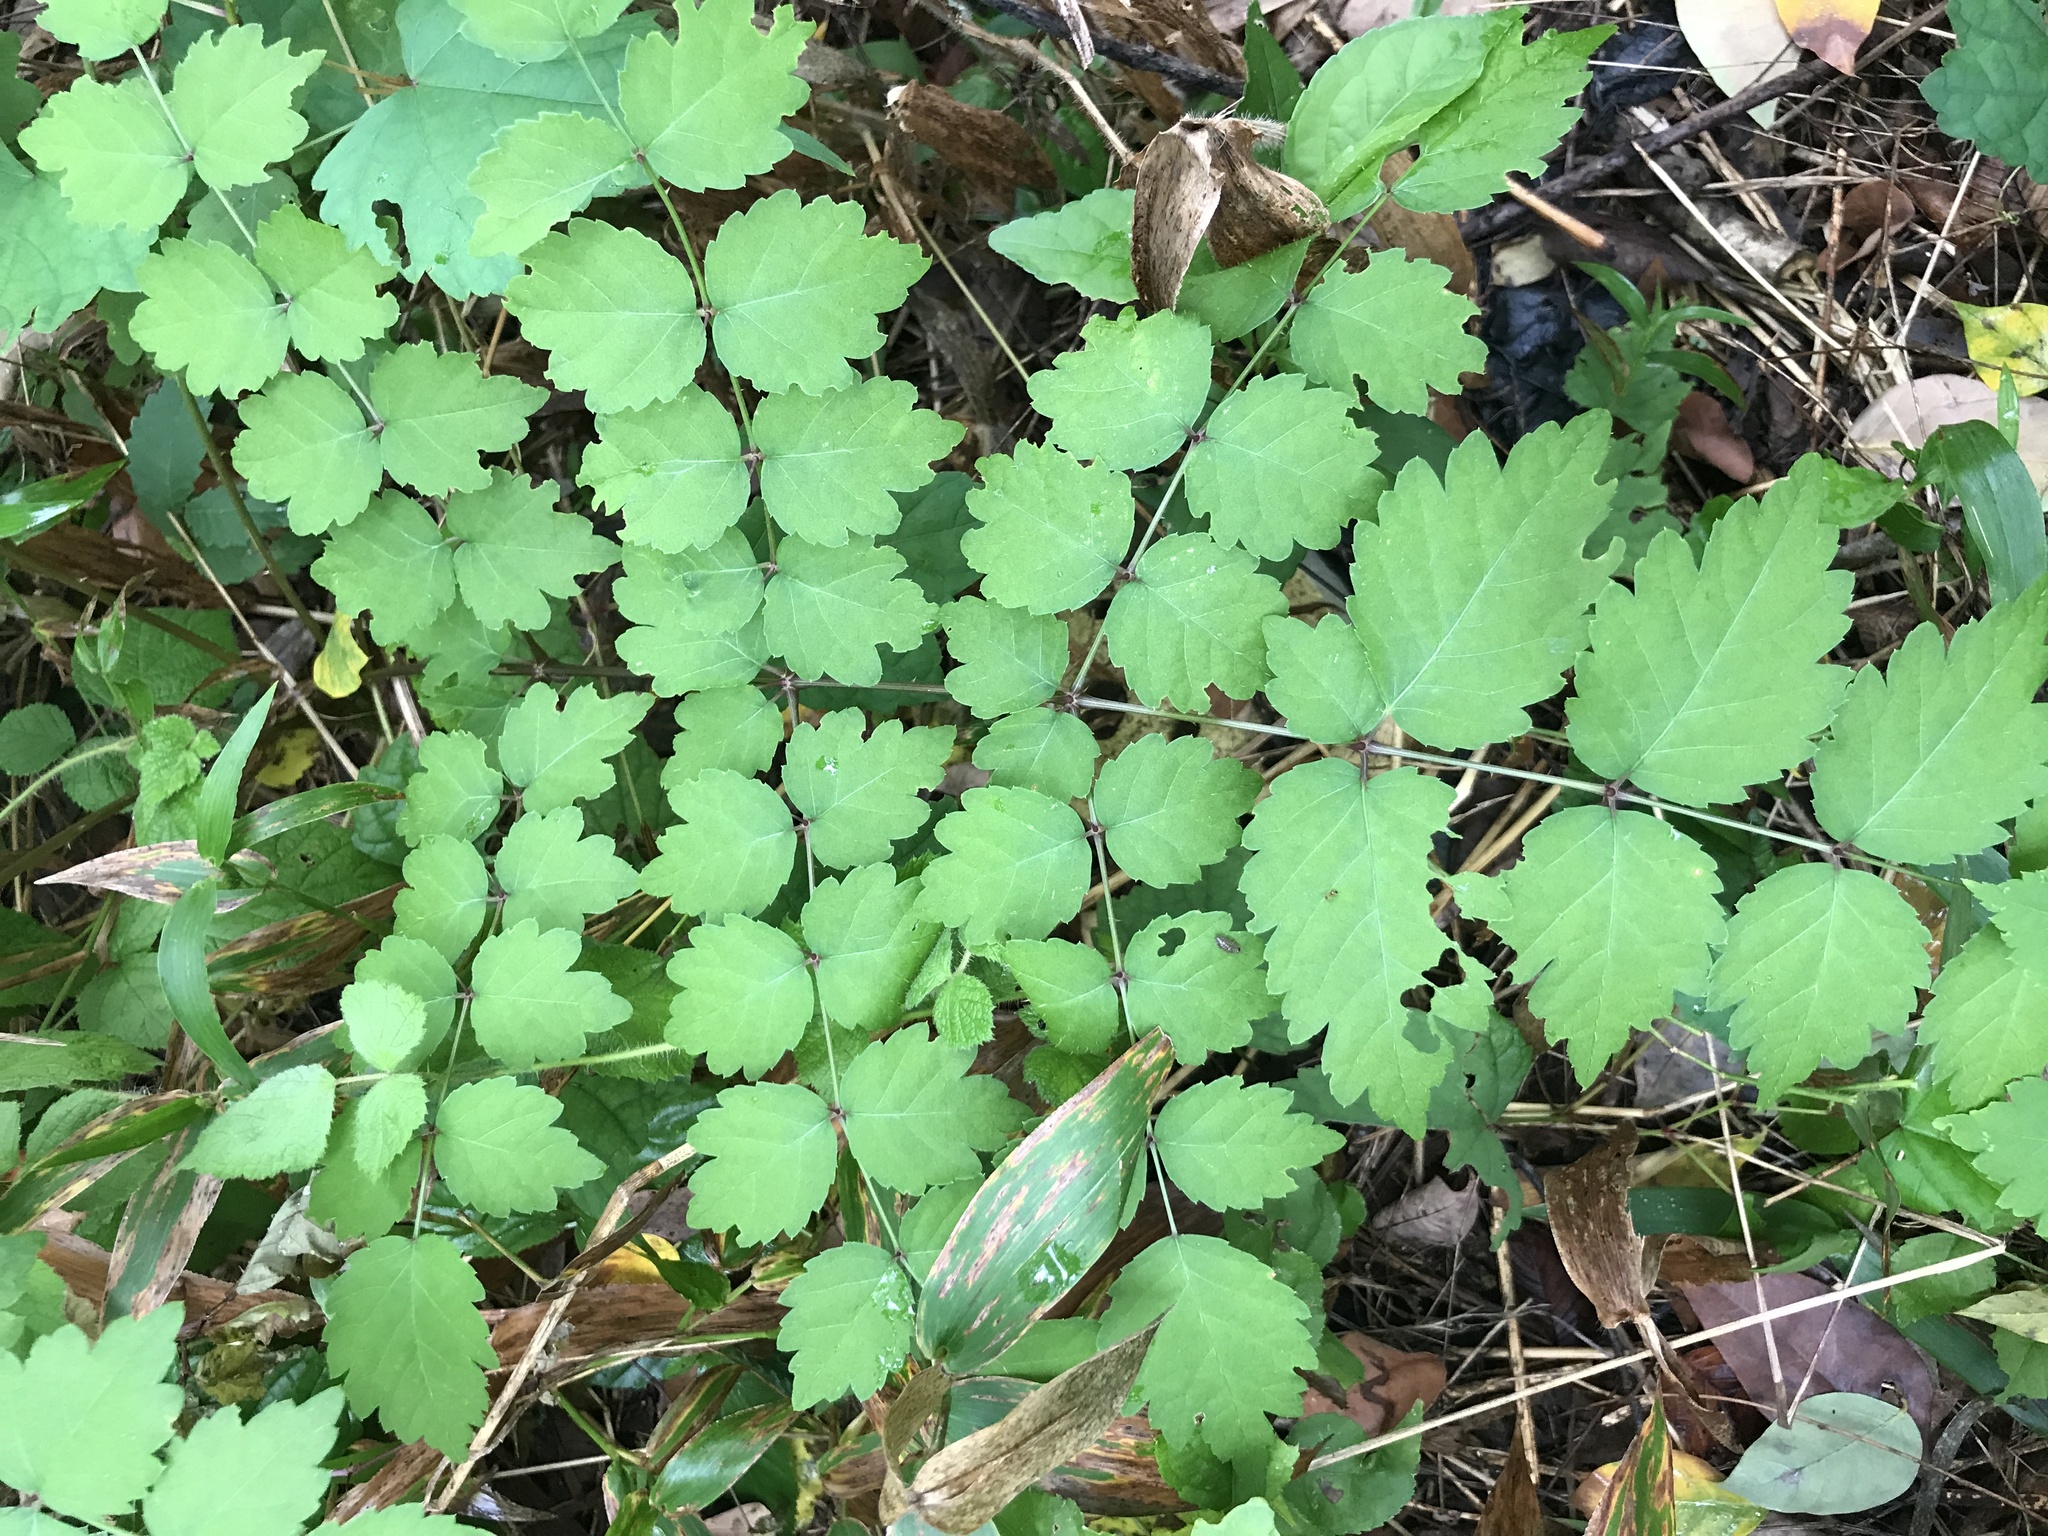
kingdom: Plantae
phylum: Tracheophyta
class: Magnoliopsida
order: Apiales
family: Araliaceae
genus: Aralia
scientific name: Aralia elata
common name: Japanese angelica-tree
